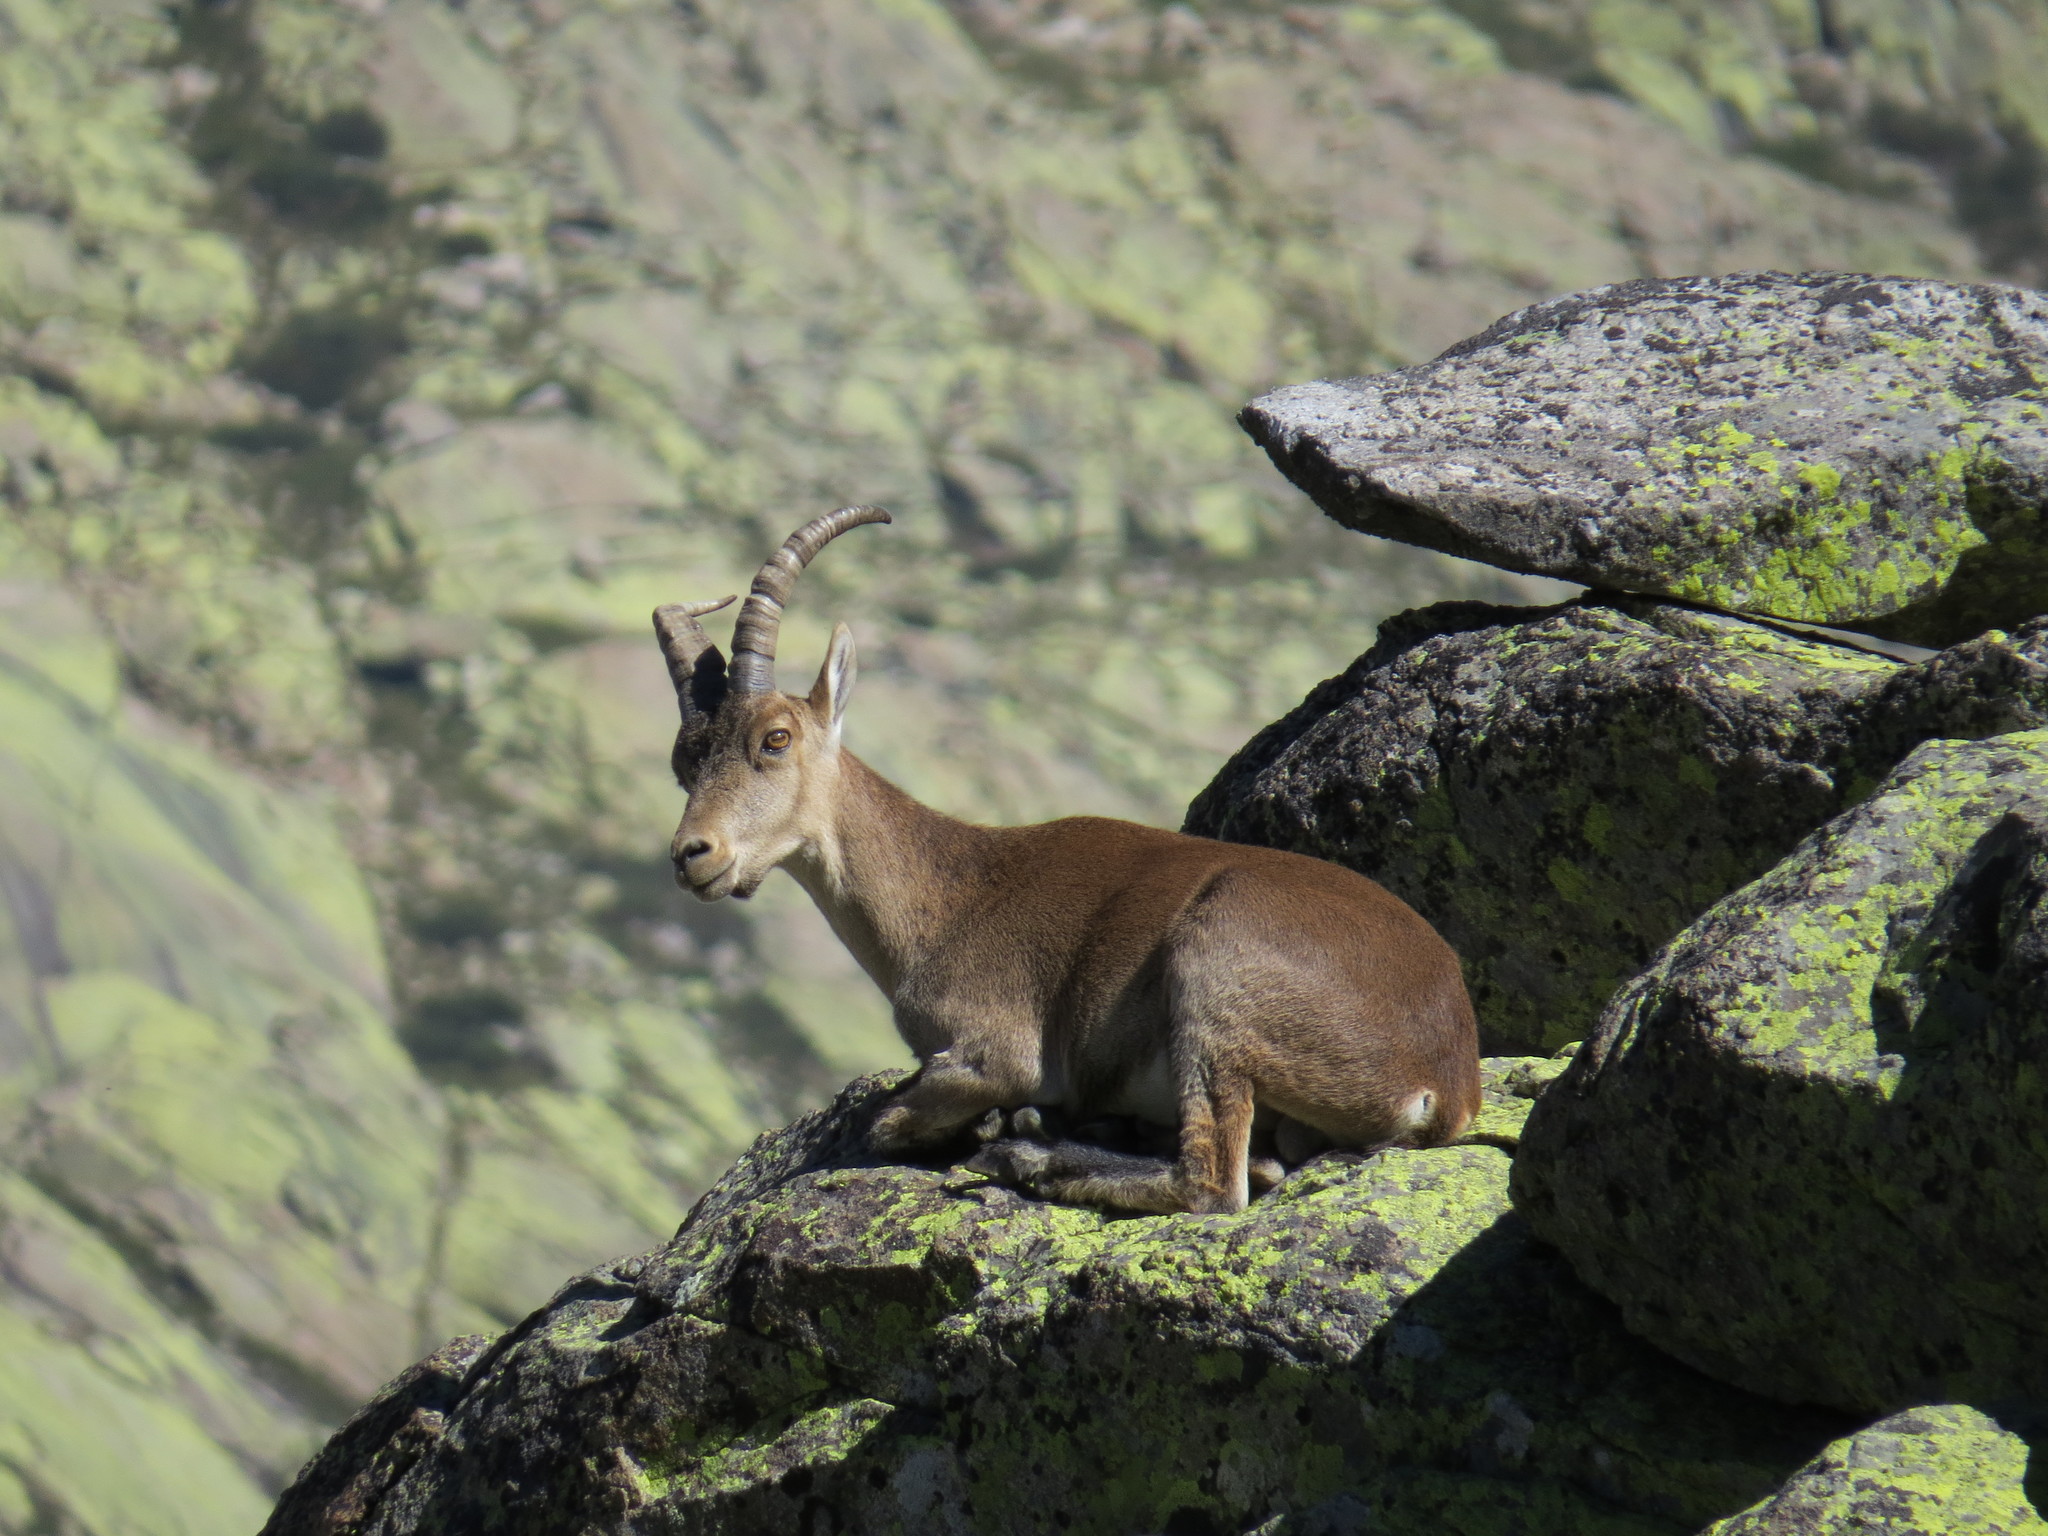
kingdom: Animalia
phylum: Chordata
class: Mammalia
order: Artiodactyla
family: Bovidae
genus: Capra
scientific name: Capra pyrenaica
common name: Spanish ibex
